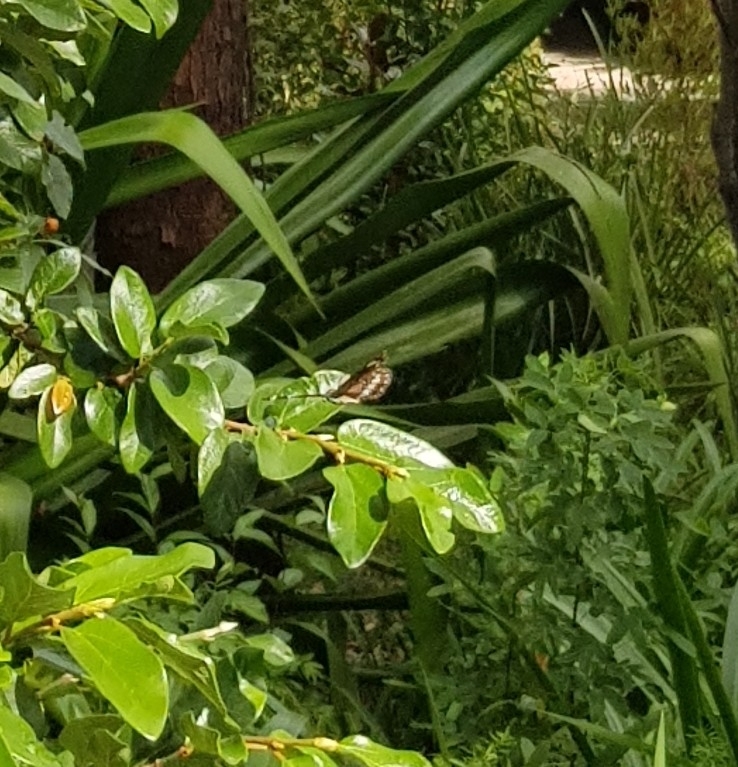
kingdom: Animalia
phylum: Arthropoda
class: Insecta
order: Lepidoptera
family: Nymphalidae
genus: Euploea
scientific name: Euploea core
